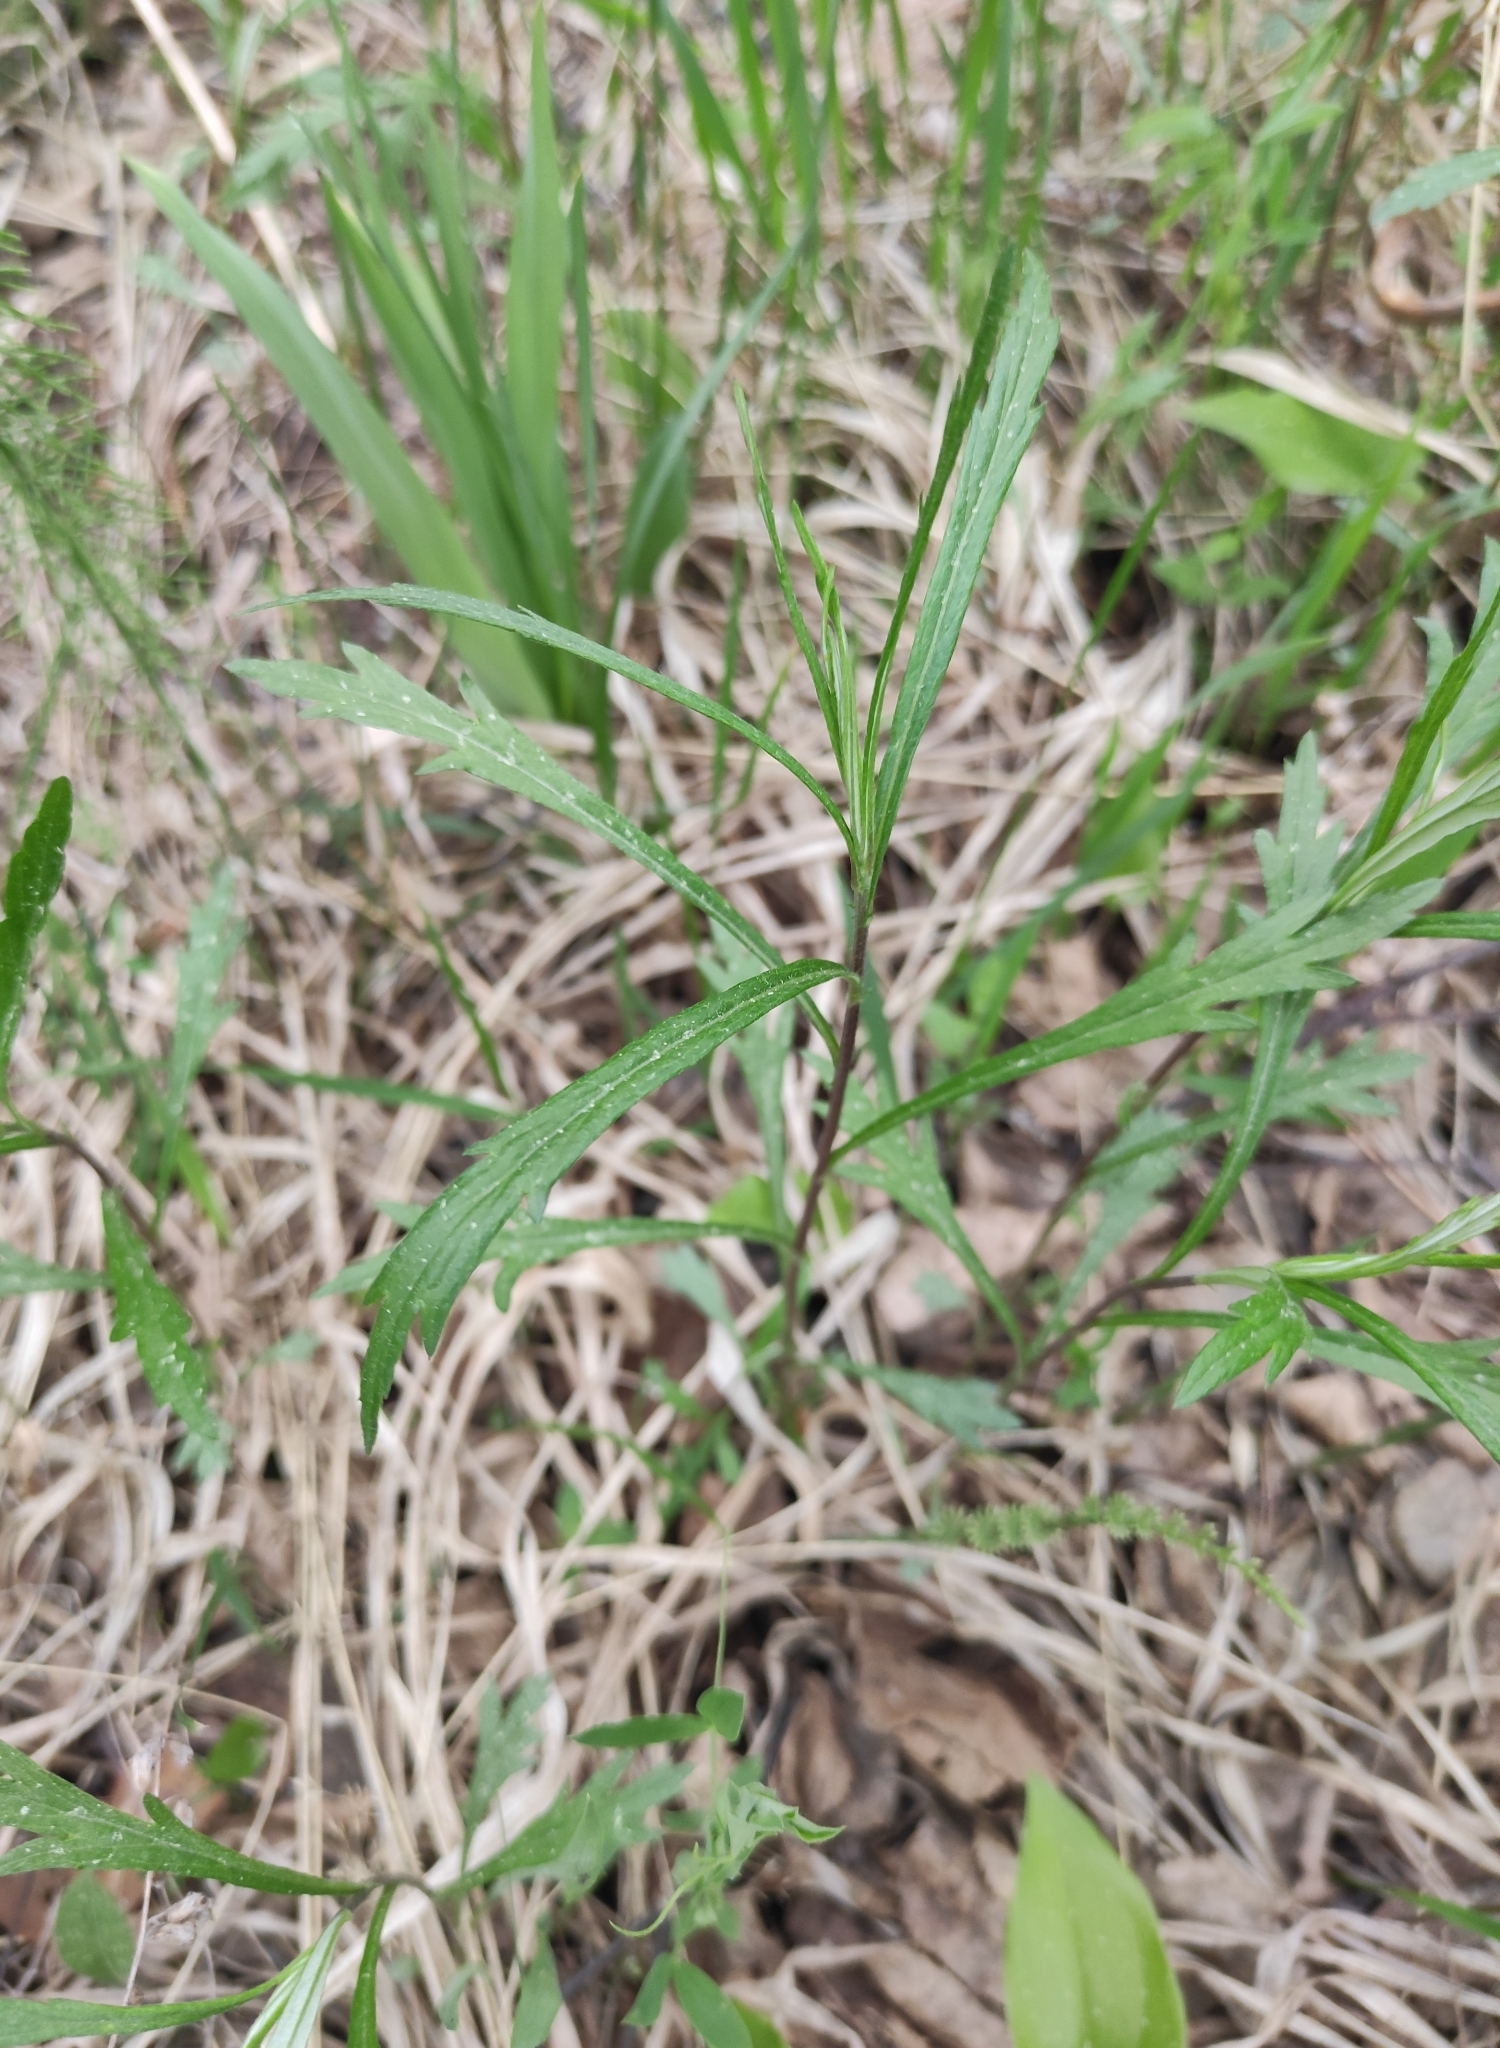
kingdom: Plantae
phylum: Tracheophyta
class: Magnoliopsida
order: Asterales
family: Asteraceae
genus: Artemisia
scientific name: Artemisia integrifolia
